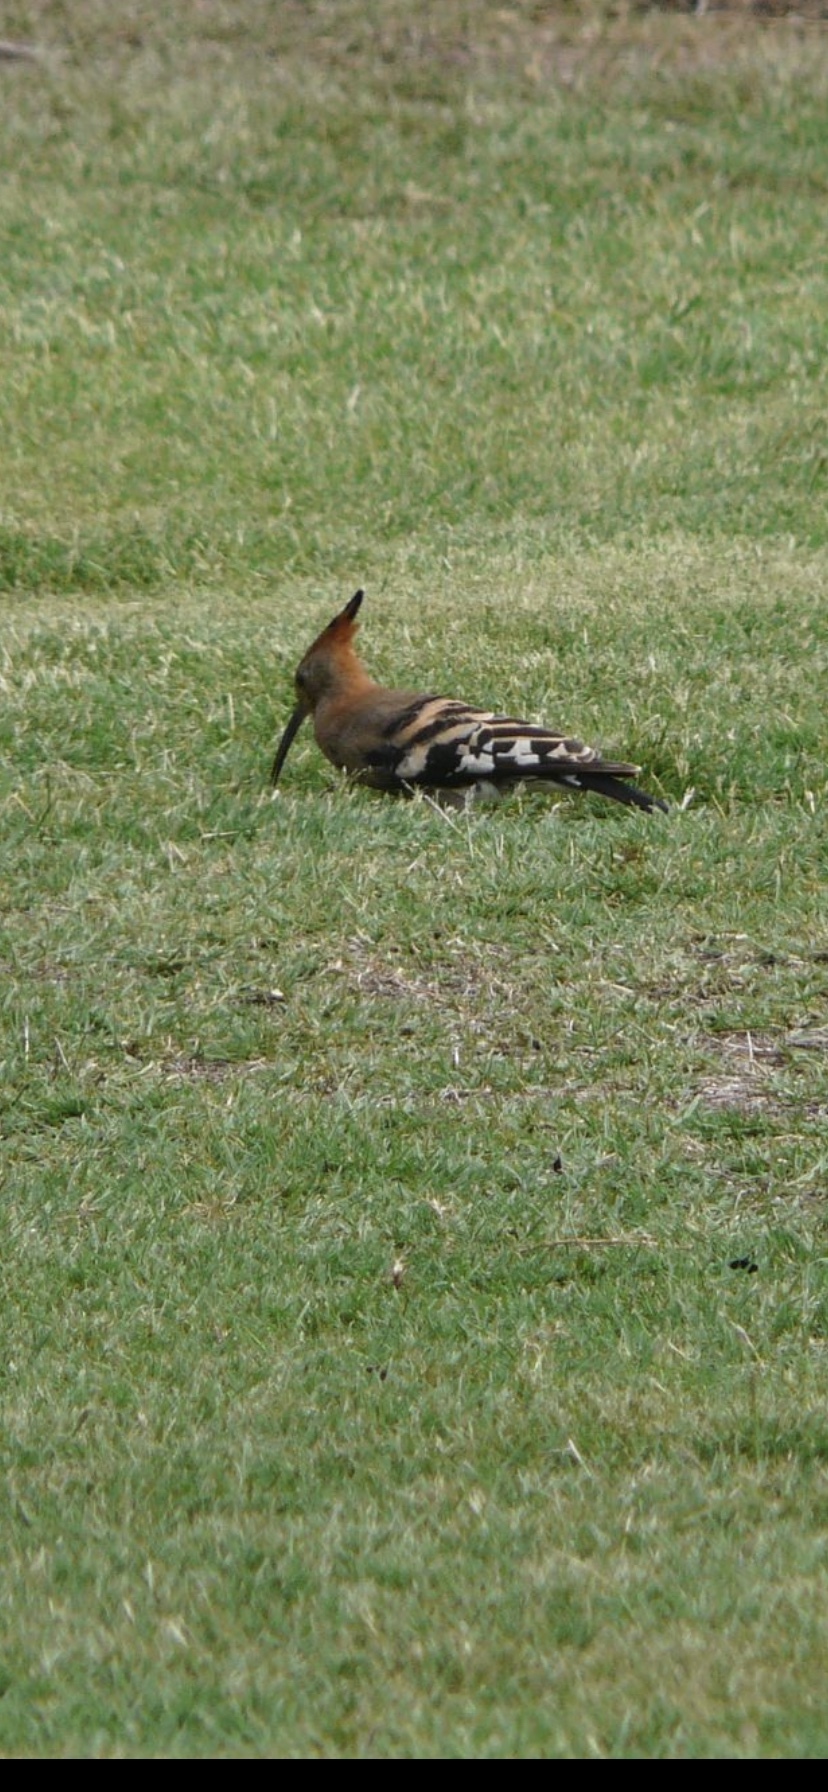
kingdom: Animalia
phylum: Chordata
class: Aves
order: Bucerotiformes
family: Upupidae
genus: Upupa
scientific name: Upupa africana
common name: African hoopoe
